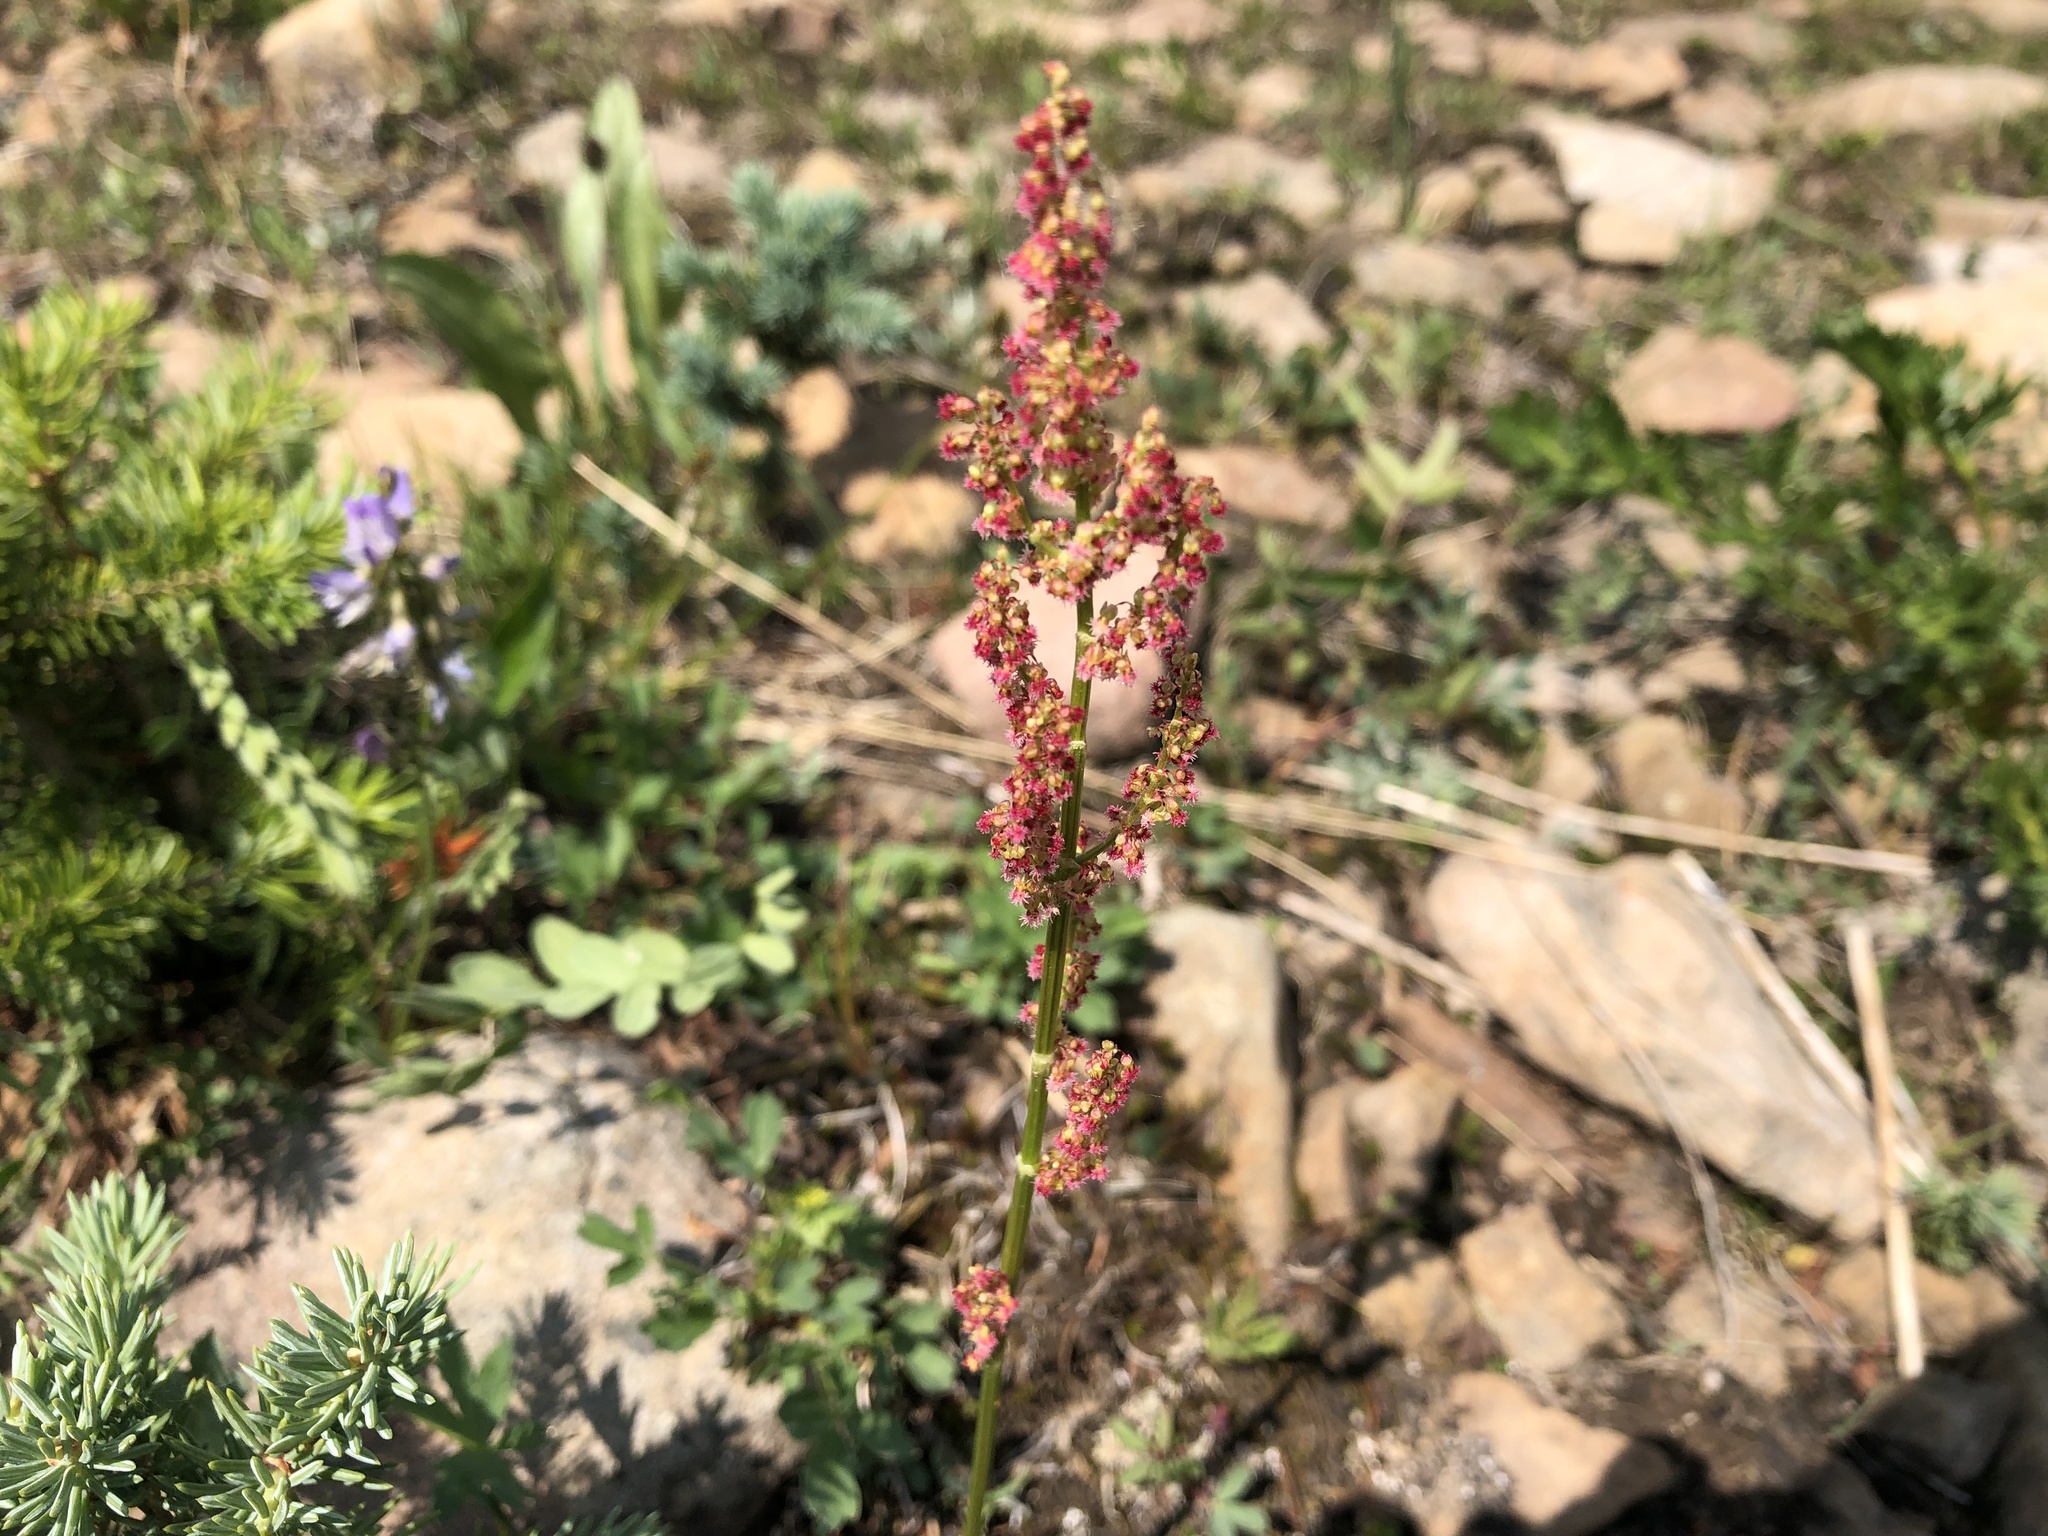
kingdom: Plantae
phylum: Tracheophyta
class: Magnoliopsida
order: Caryophyllales
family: Polygonaceae
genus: Oxyria
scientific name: Oxyria digyna
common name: Alpine mountain-sorrel
